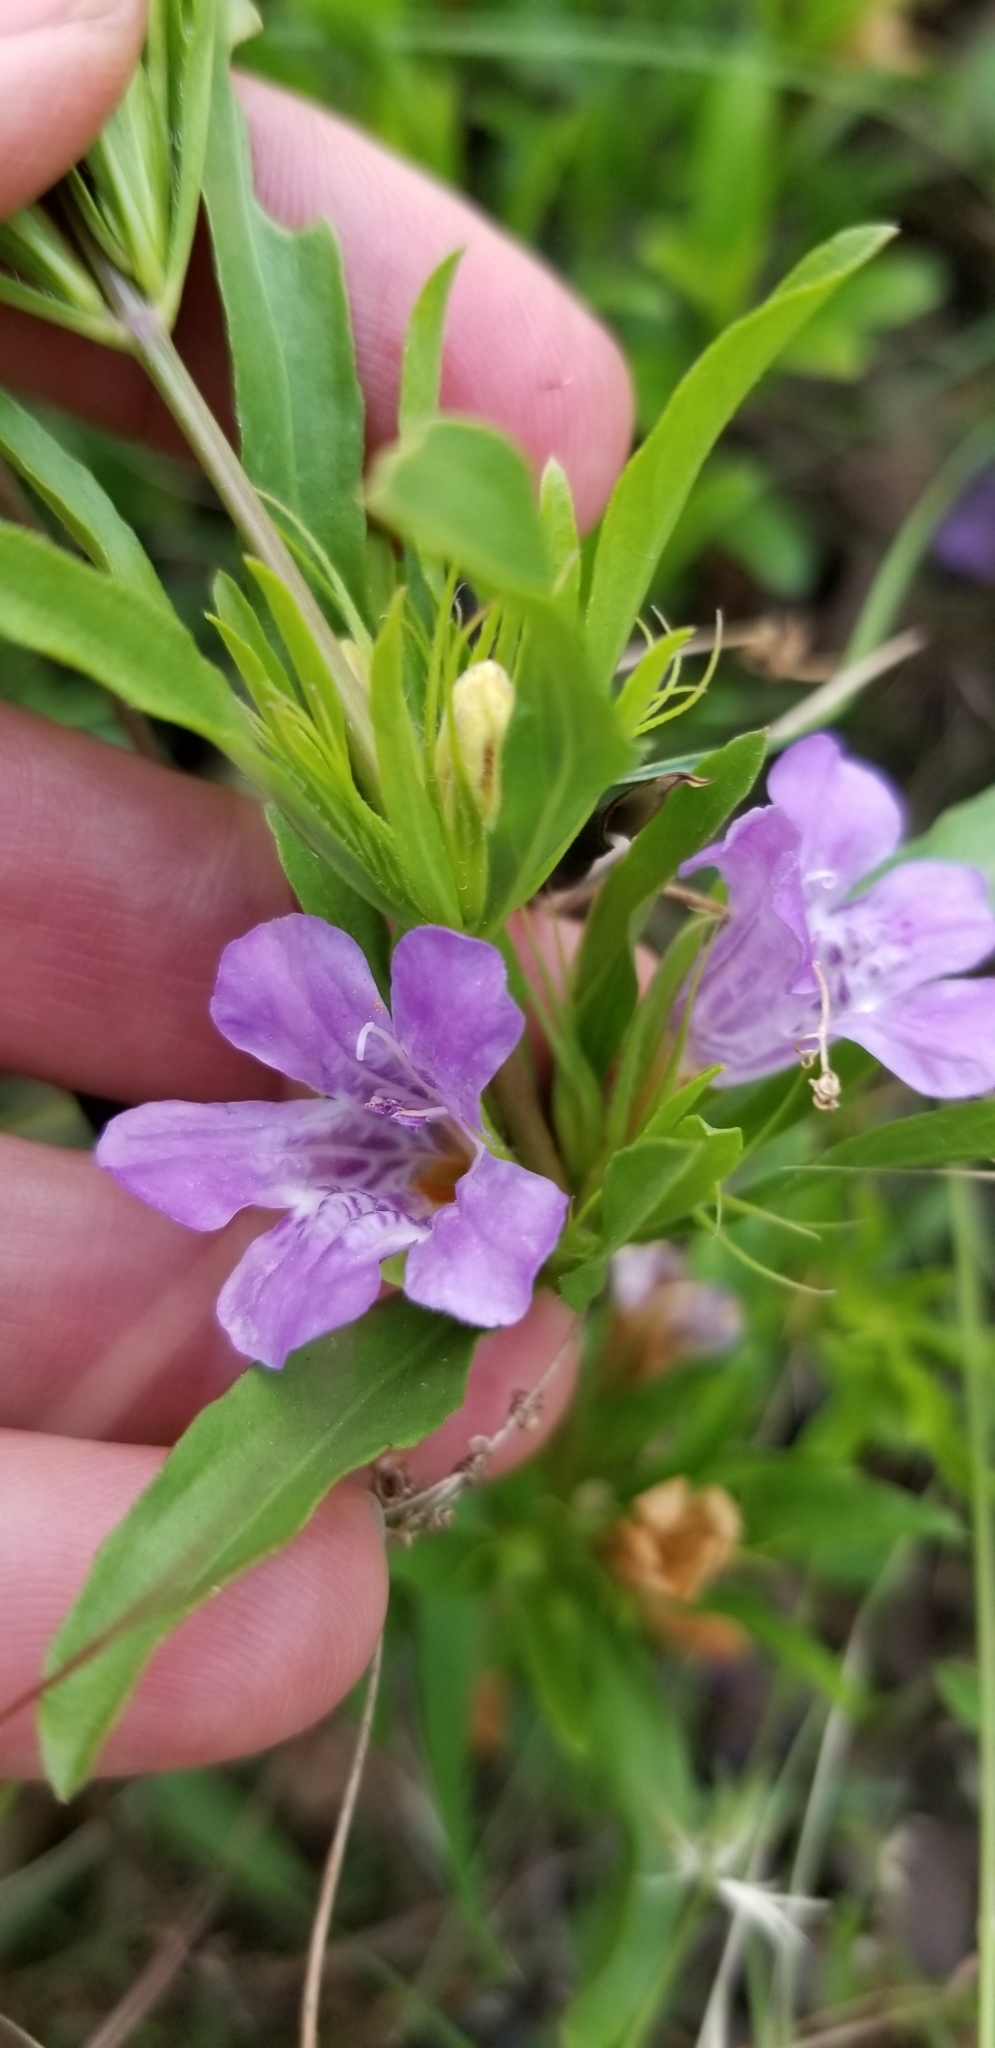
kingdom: Plantae
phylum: Tracheophyta
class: Magnoliopsida
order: Lamiales
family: Acanthaceae
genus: Dyschoriste
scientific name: Dyschoriste linearis
